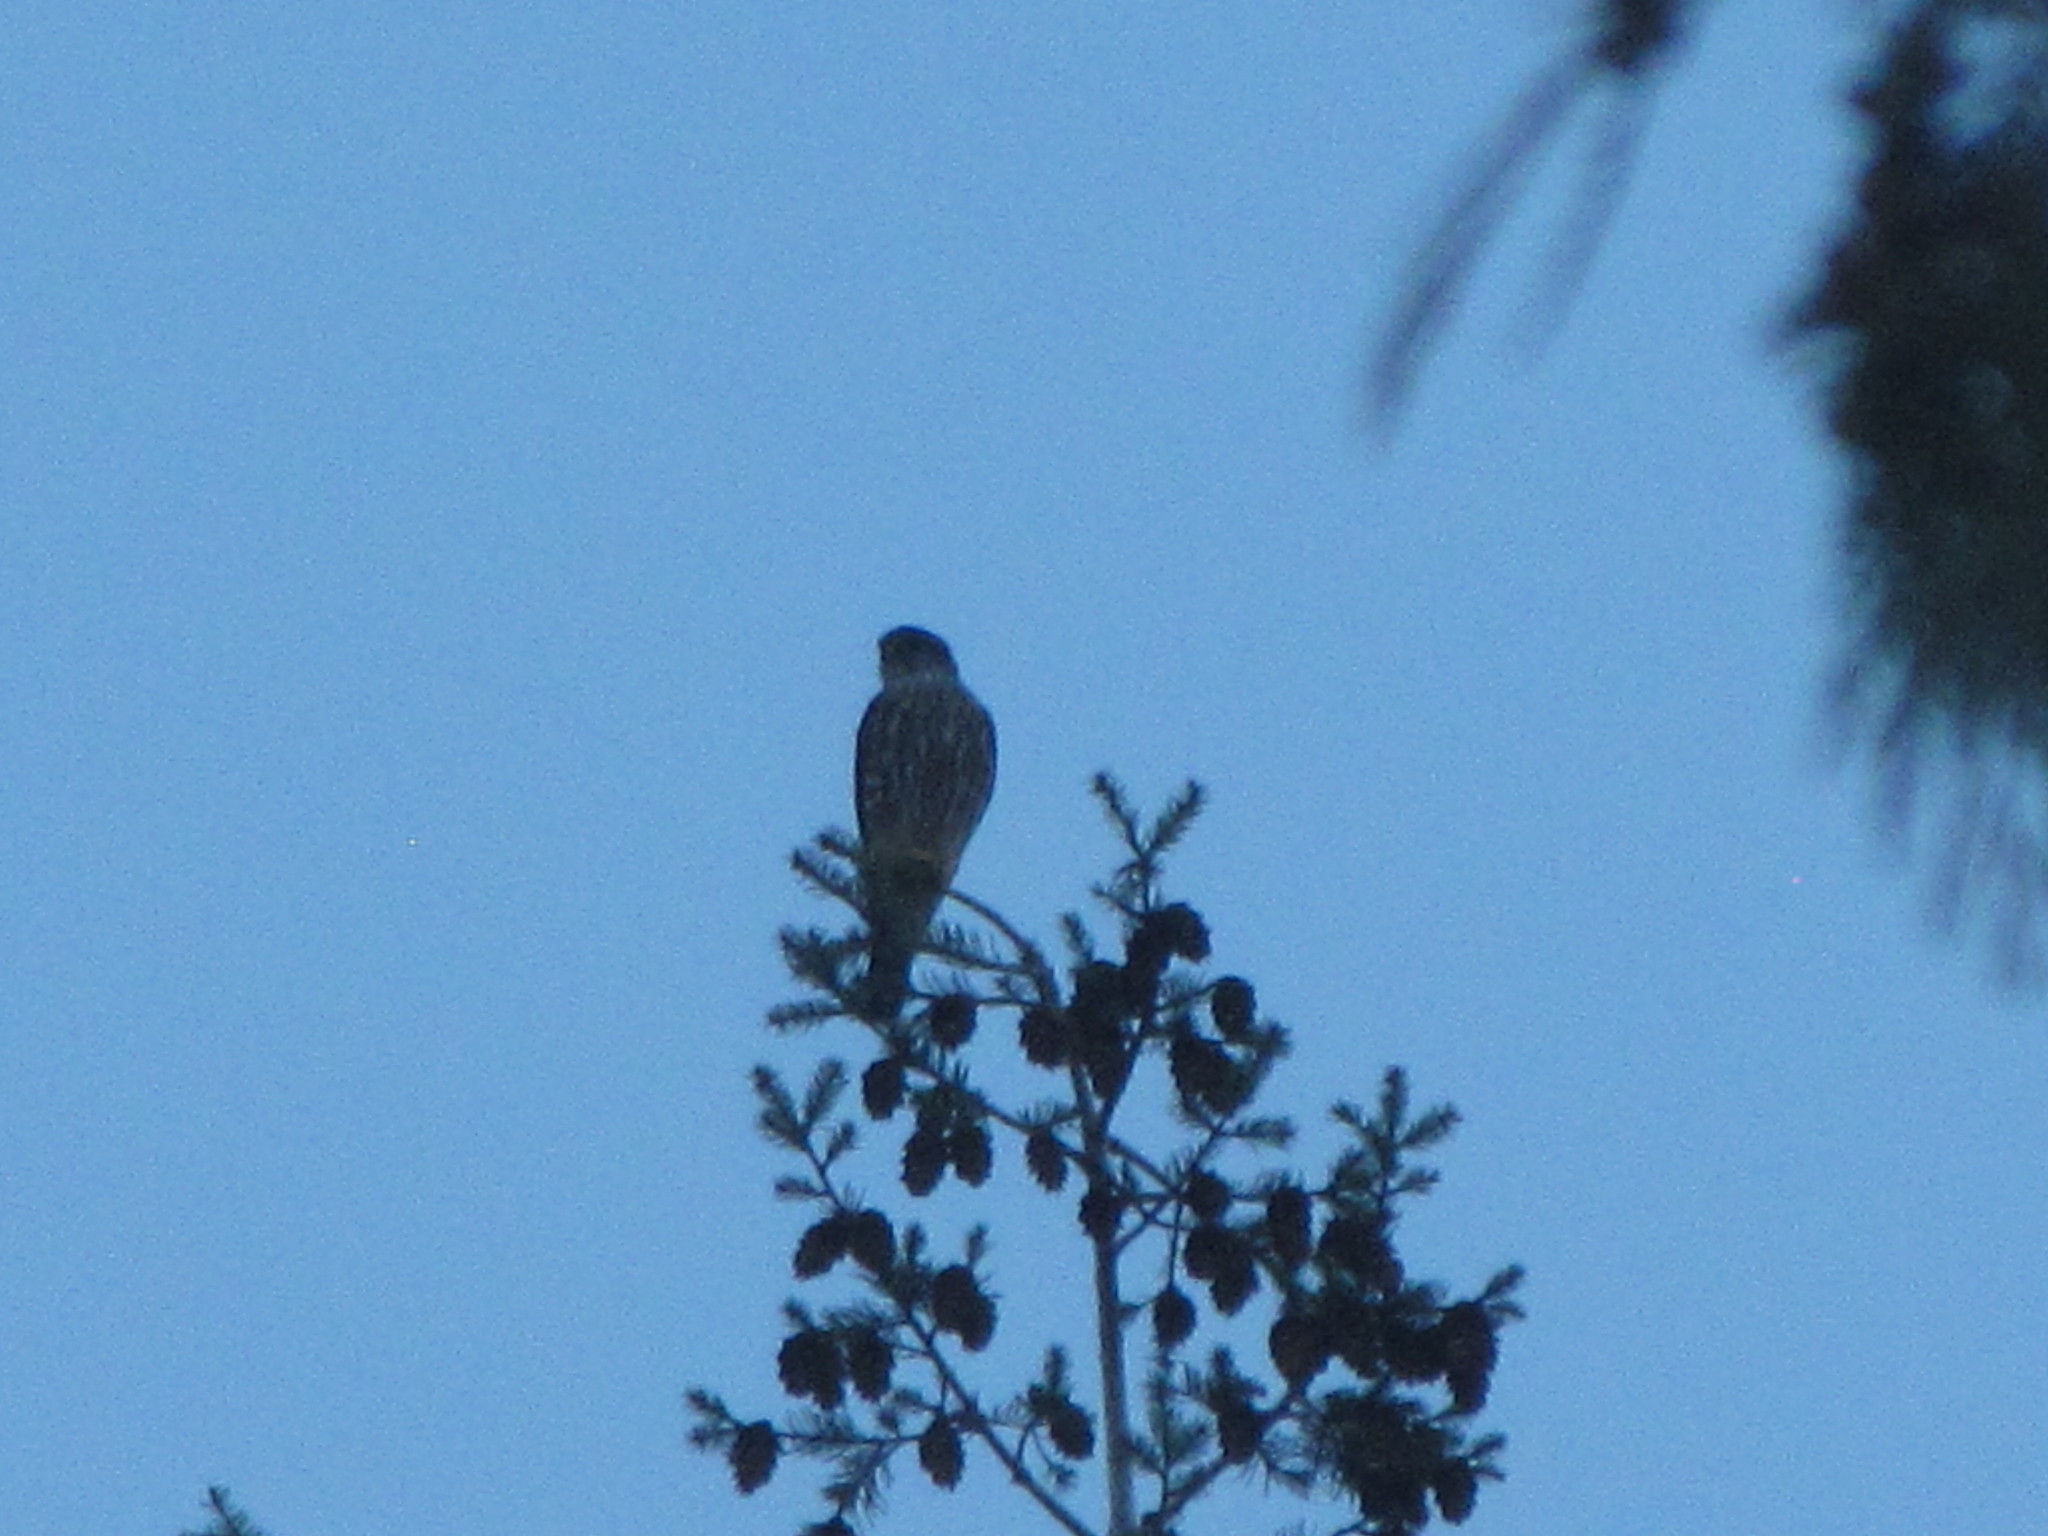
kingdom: Animalia
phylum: Chordata
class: Aves
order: Falconiformes
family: Falconidae
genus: Falco
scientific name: Falco columbarius
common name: Merlin
